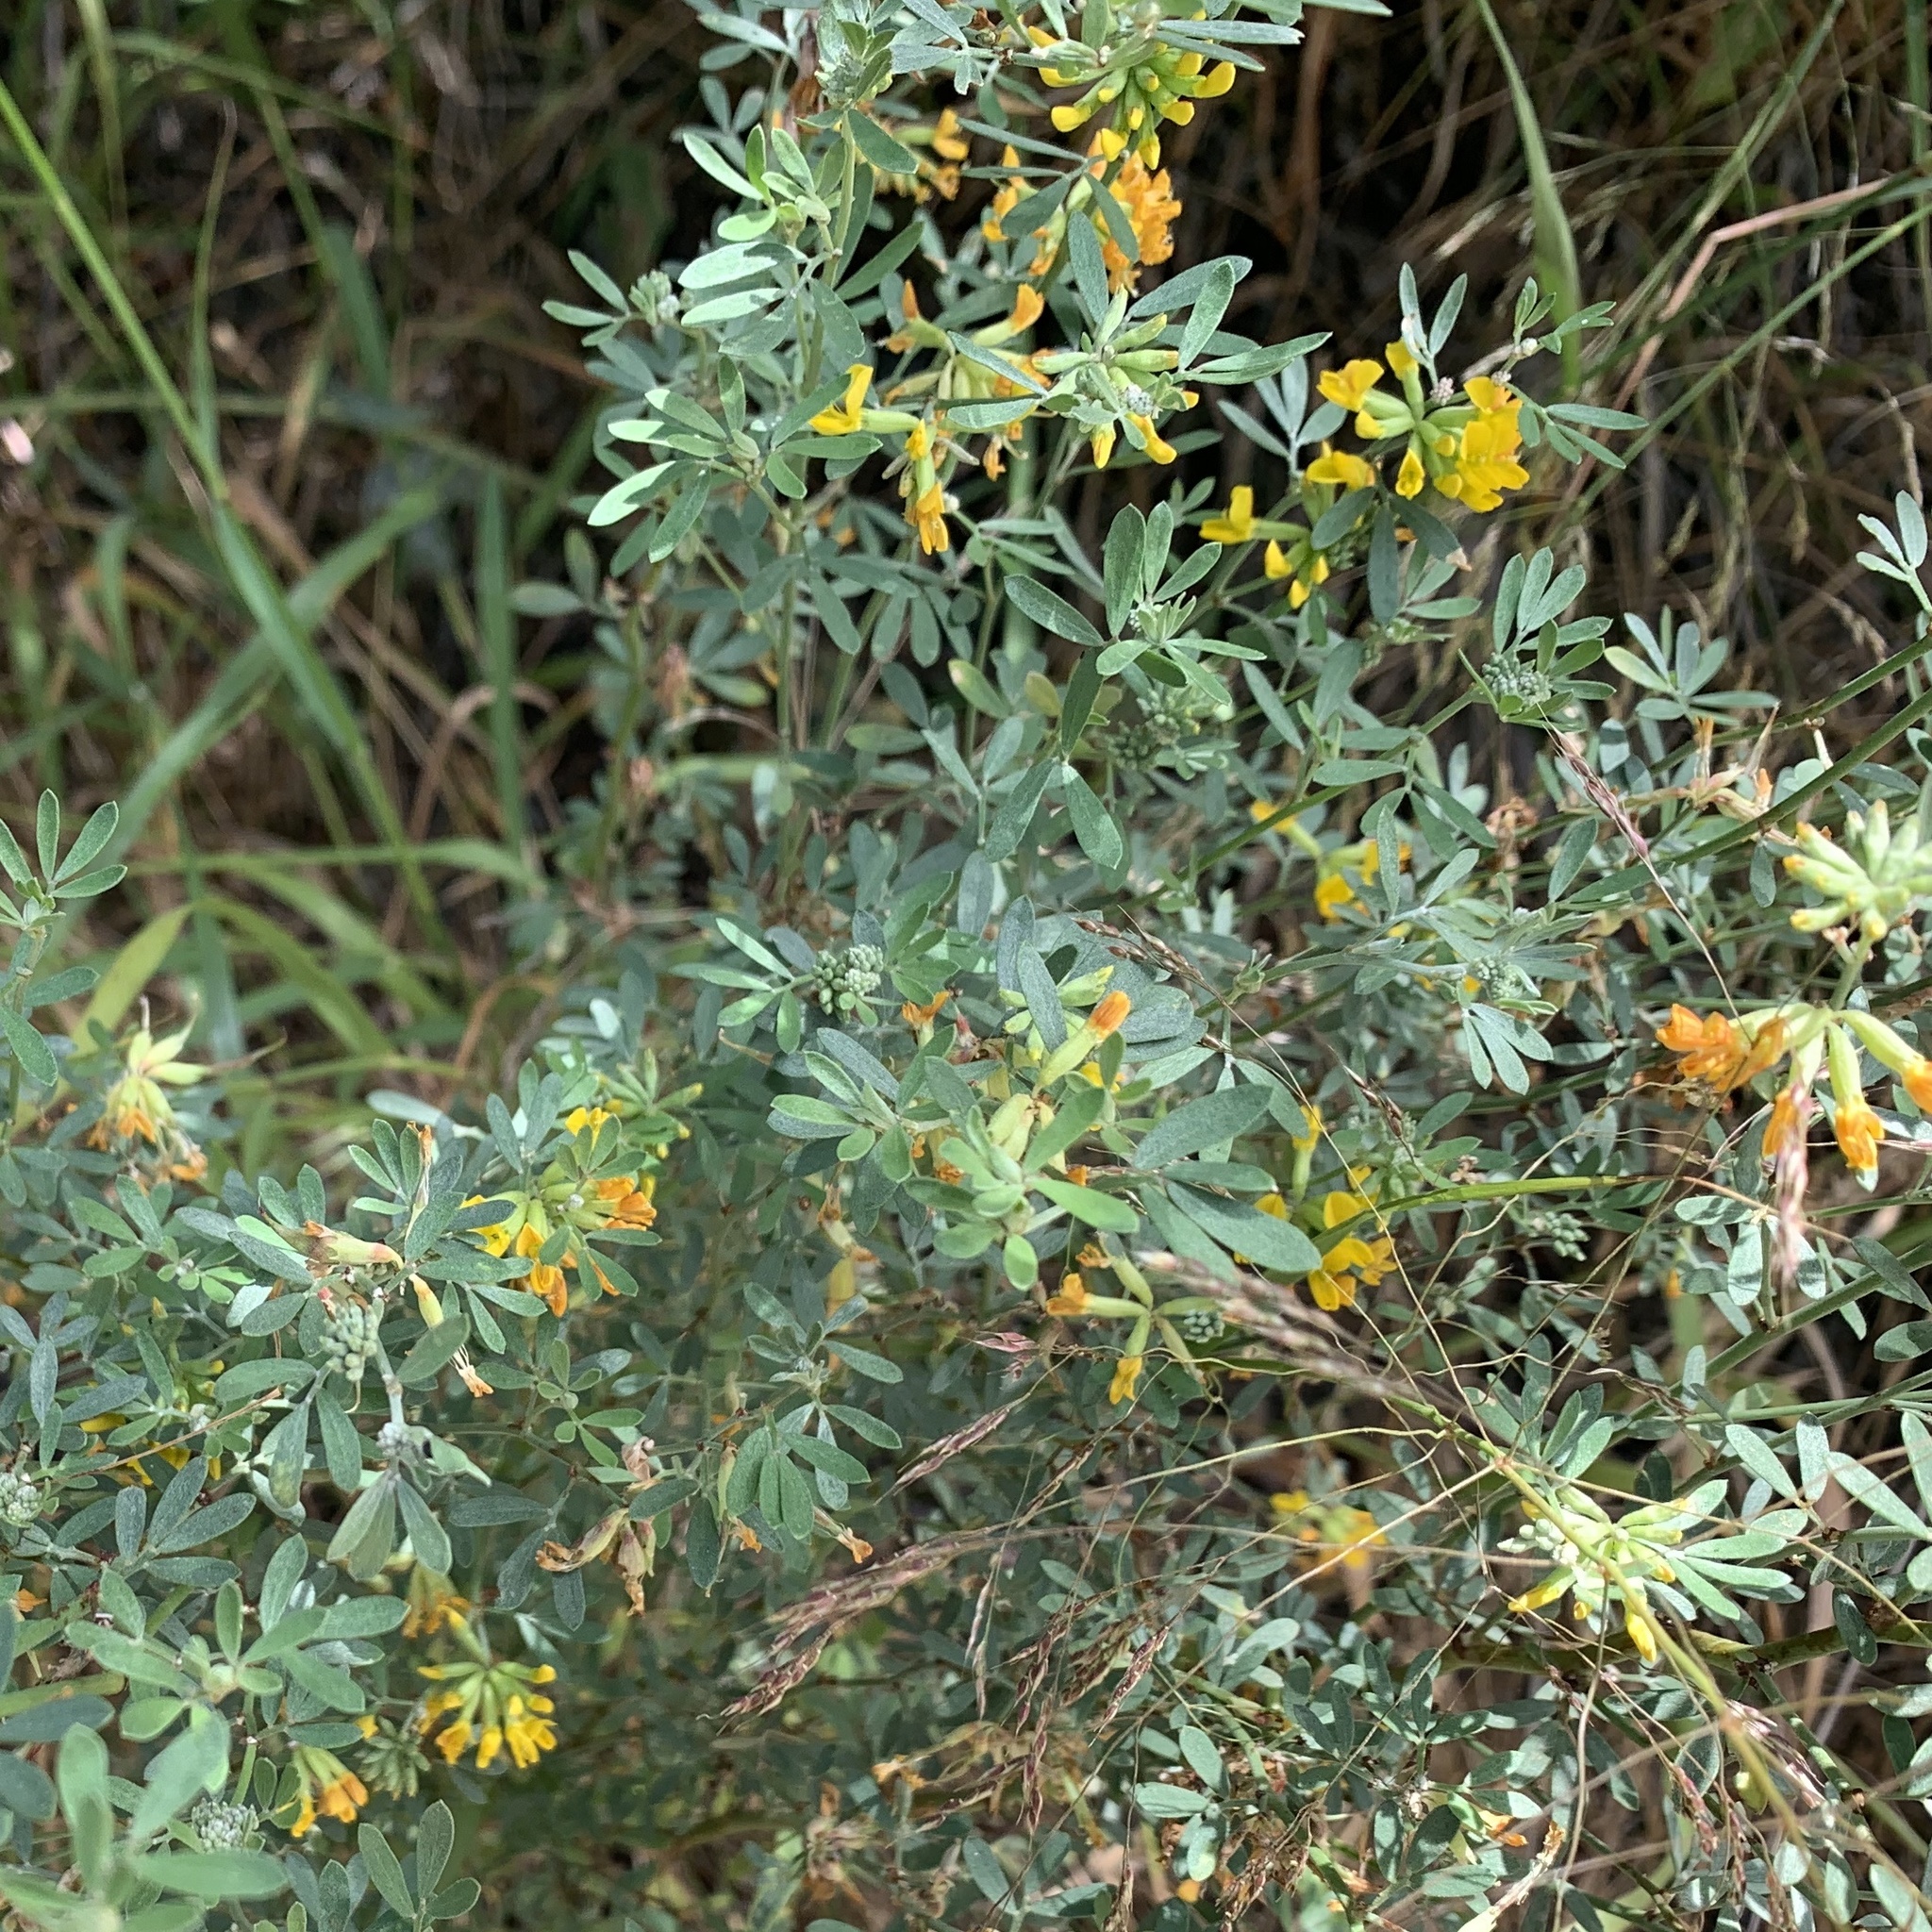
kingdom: Plantae
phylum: Tracheophyta
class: Magnoliopsida
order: Fabales
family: Fabaceae
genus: Acmispon
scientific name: Acmispon dendroideus
